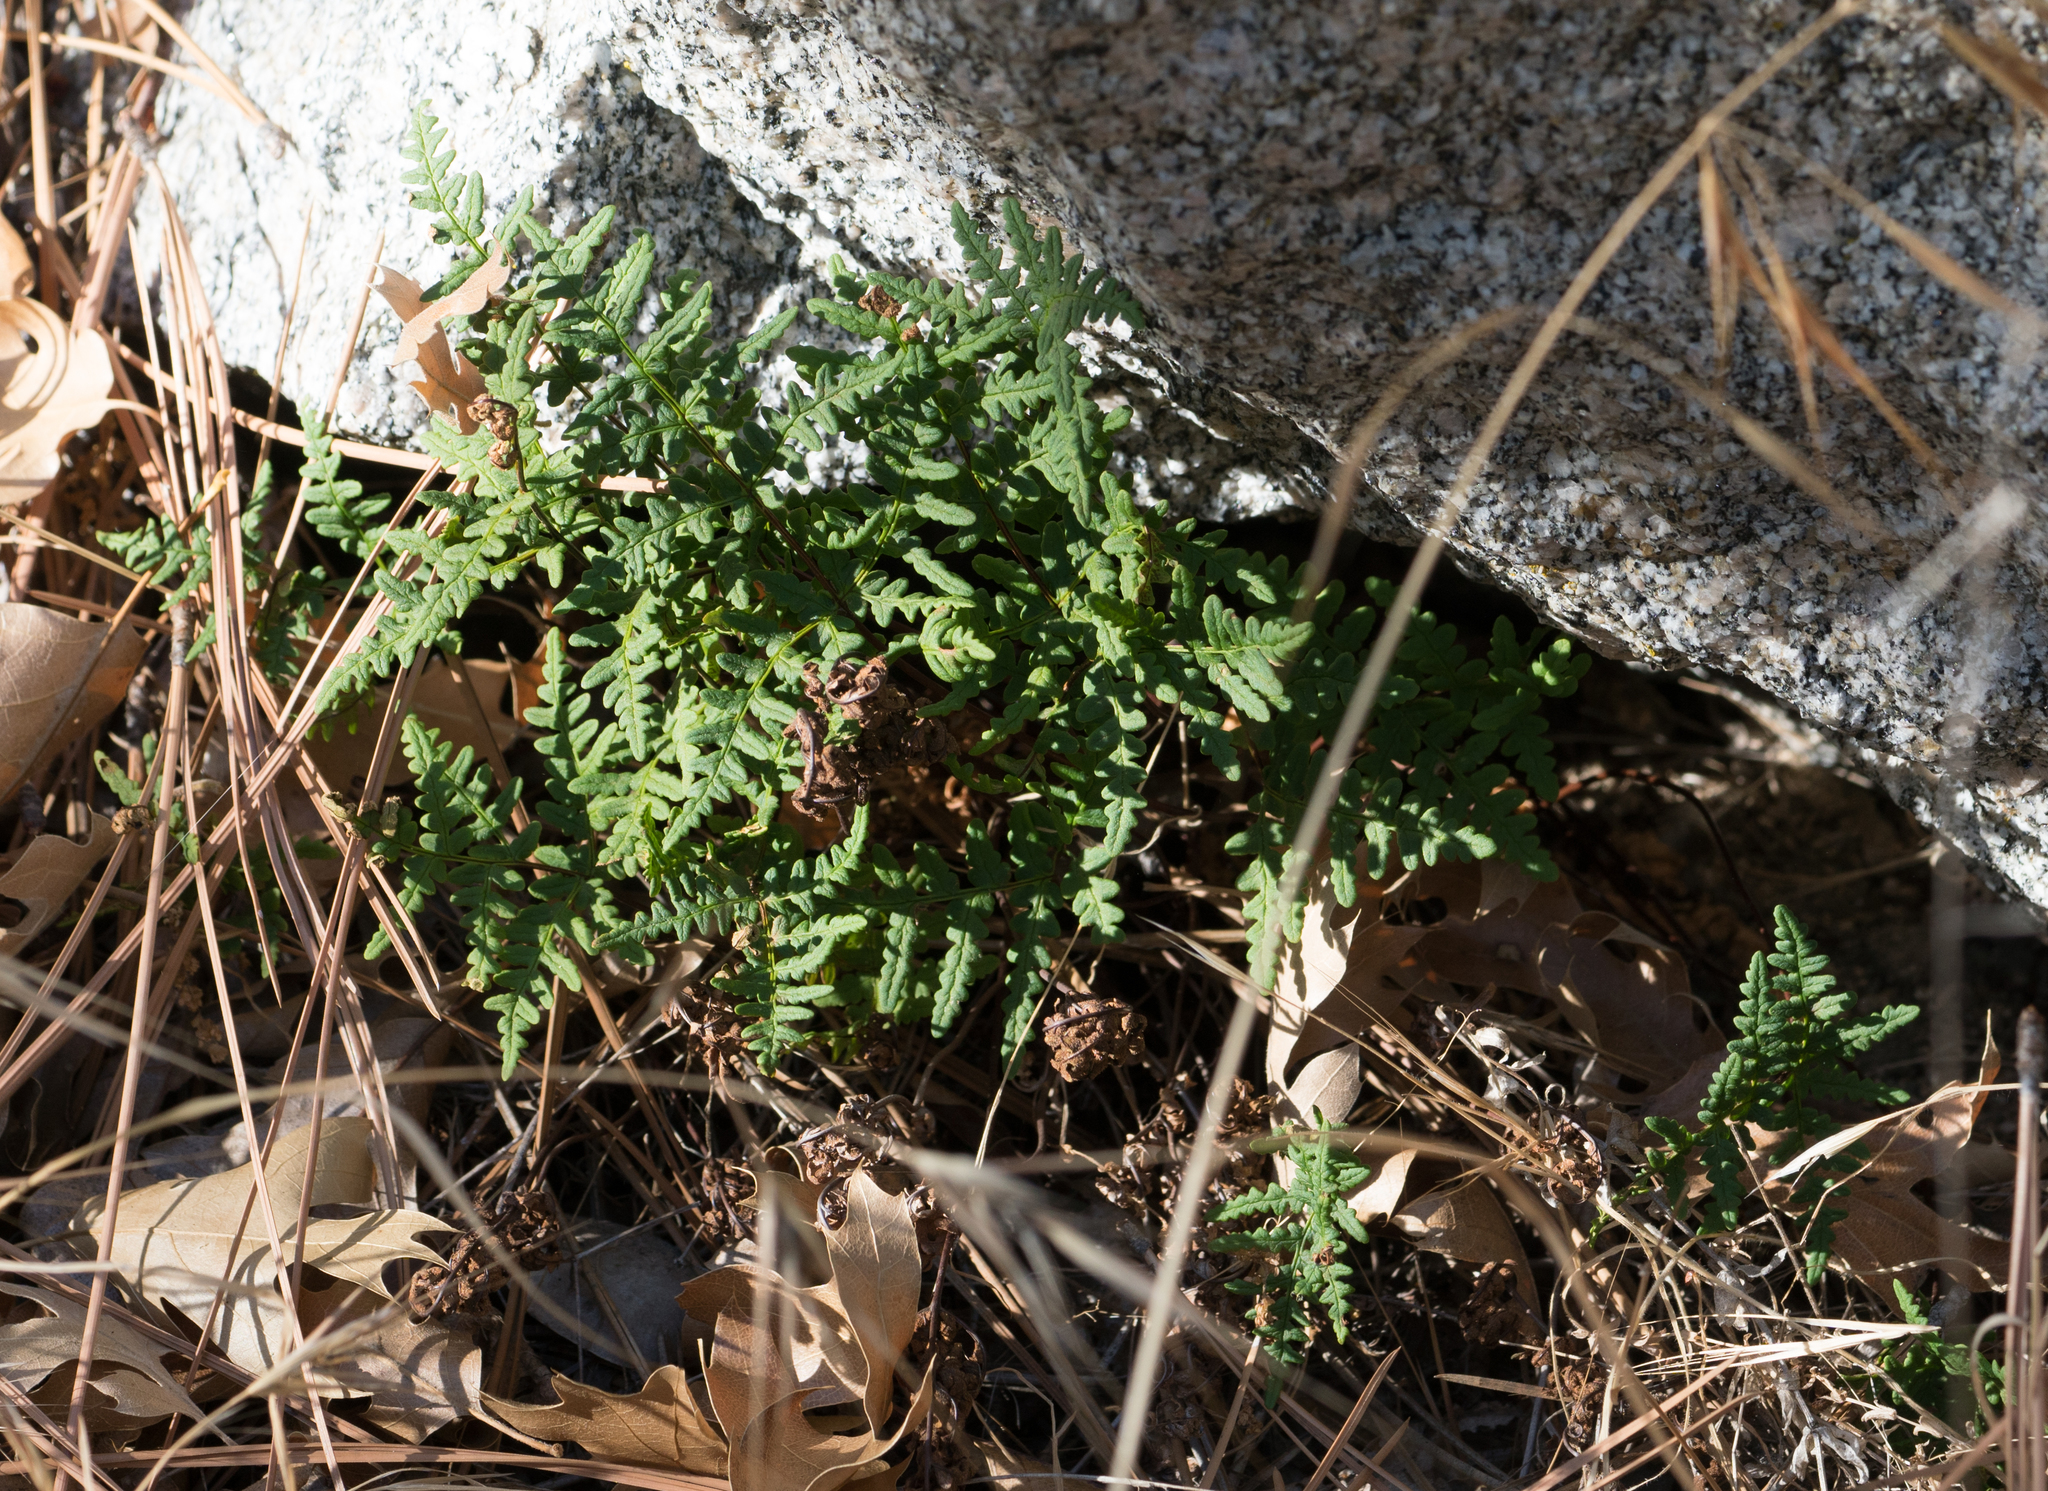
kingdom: Plantae
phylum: Tracheophyta
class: Polypodiopsida
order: Polypodiales
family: Pteridaceae
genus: Pentagramma
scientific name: Pentagramma triangularis
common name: Gold fern
